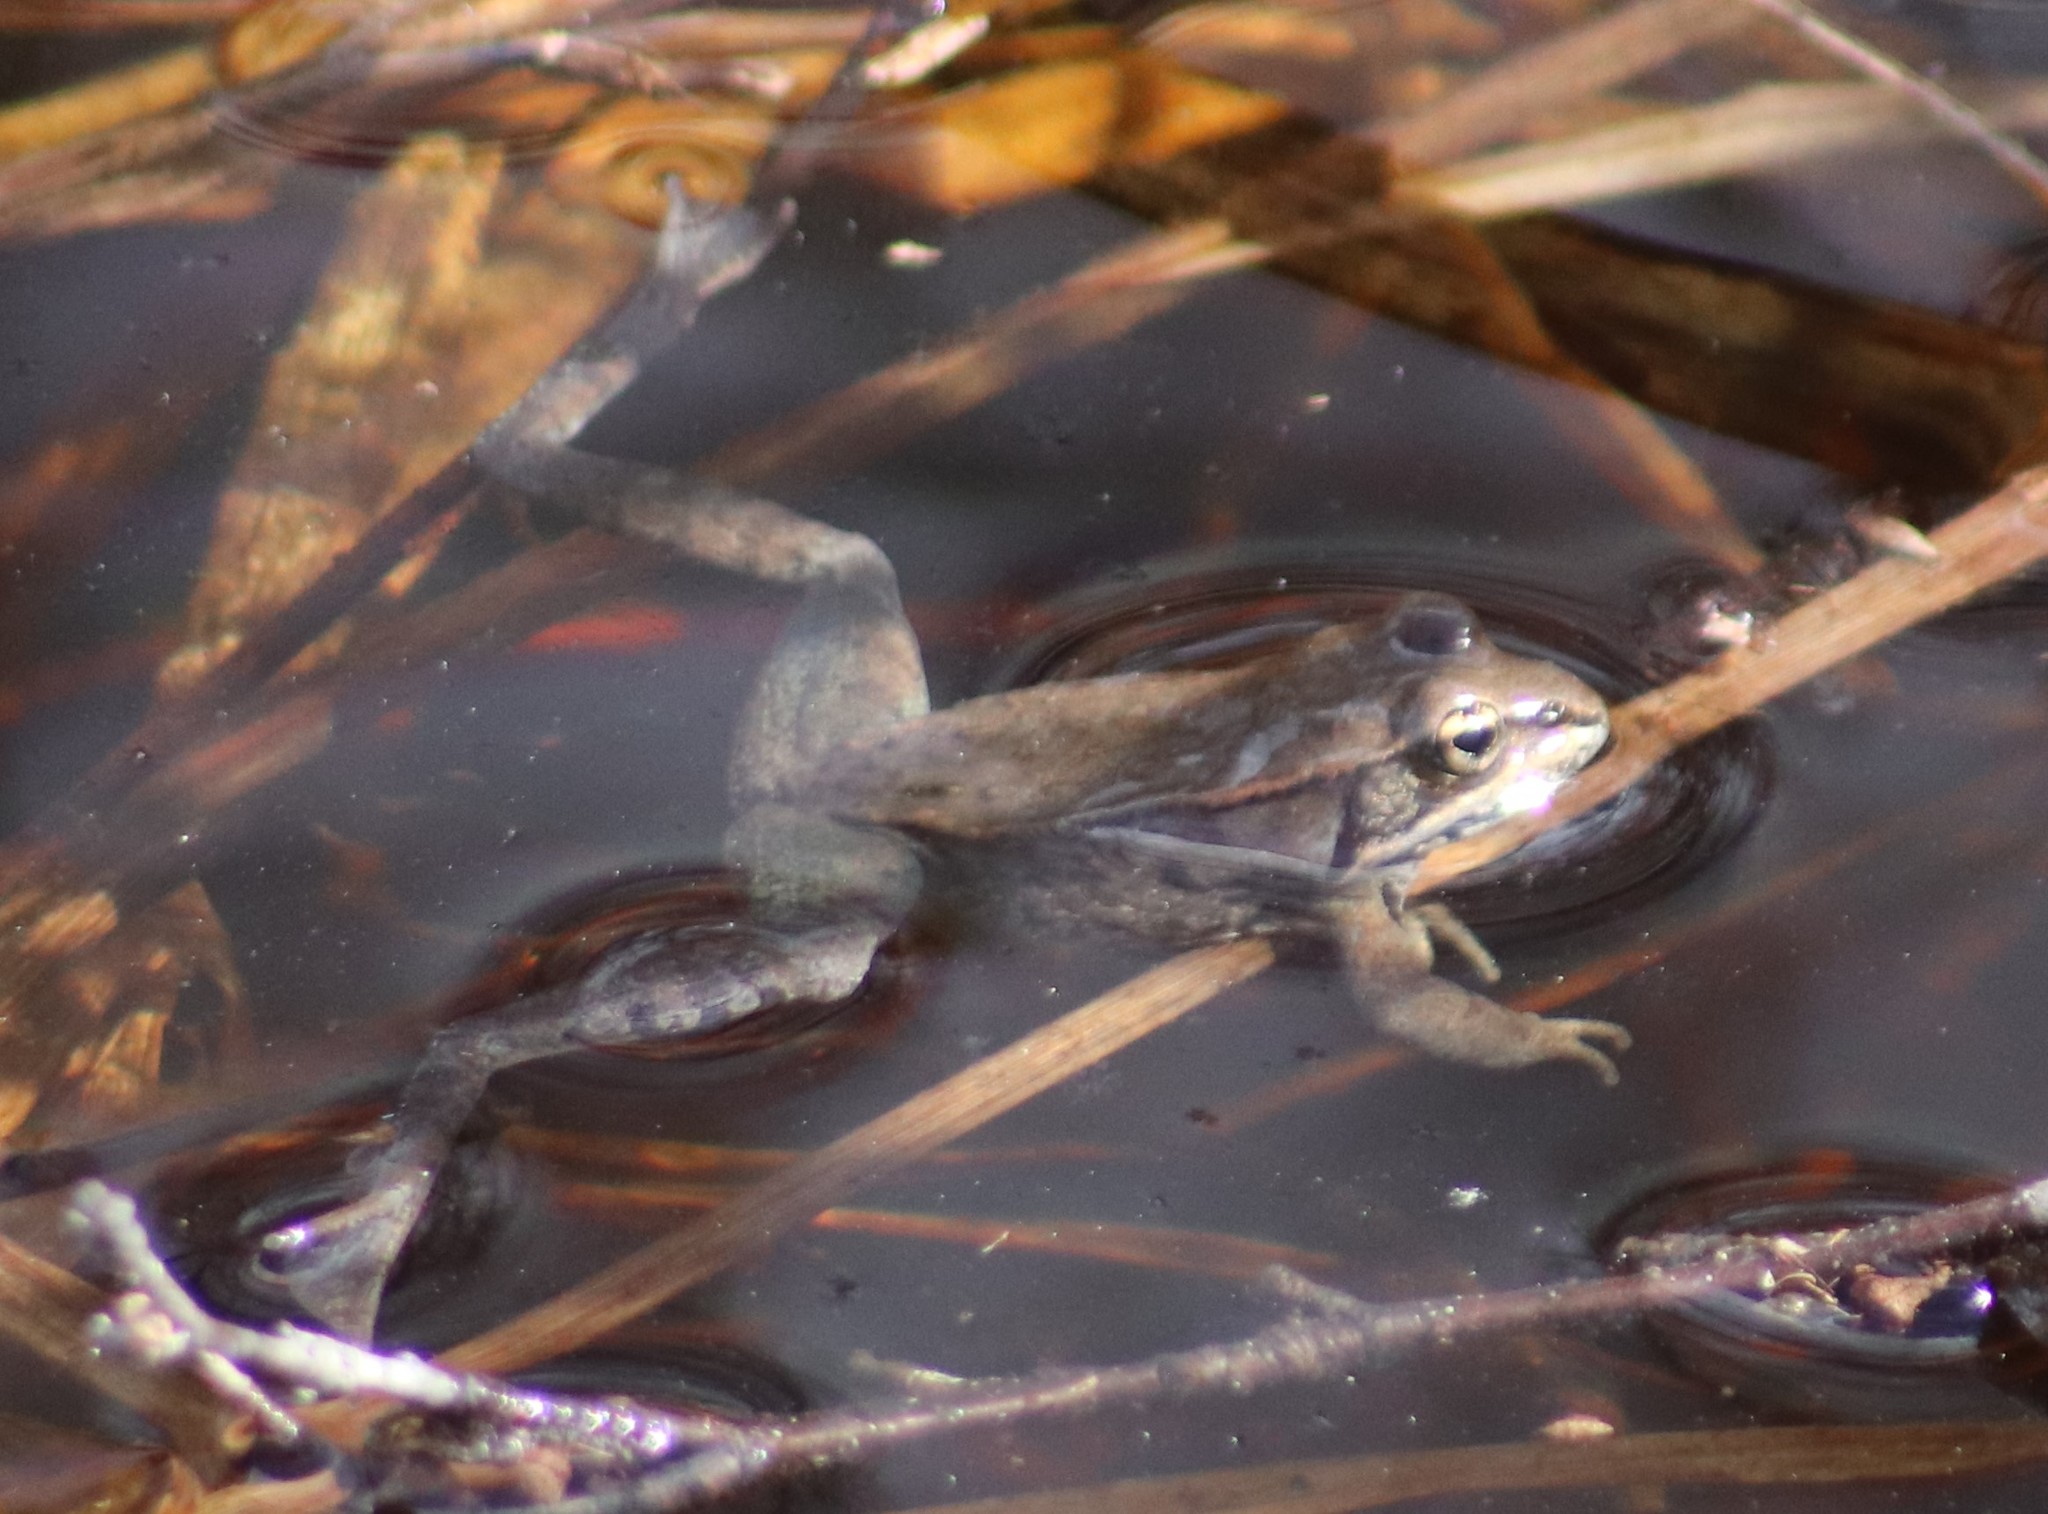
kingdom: Animalia
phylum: Chordata
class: Amphibia
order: Anura
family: Ranidae
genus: Lithobates
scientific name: Lithobates sylvaticus
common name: Wood frog
